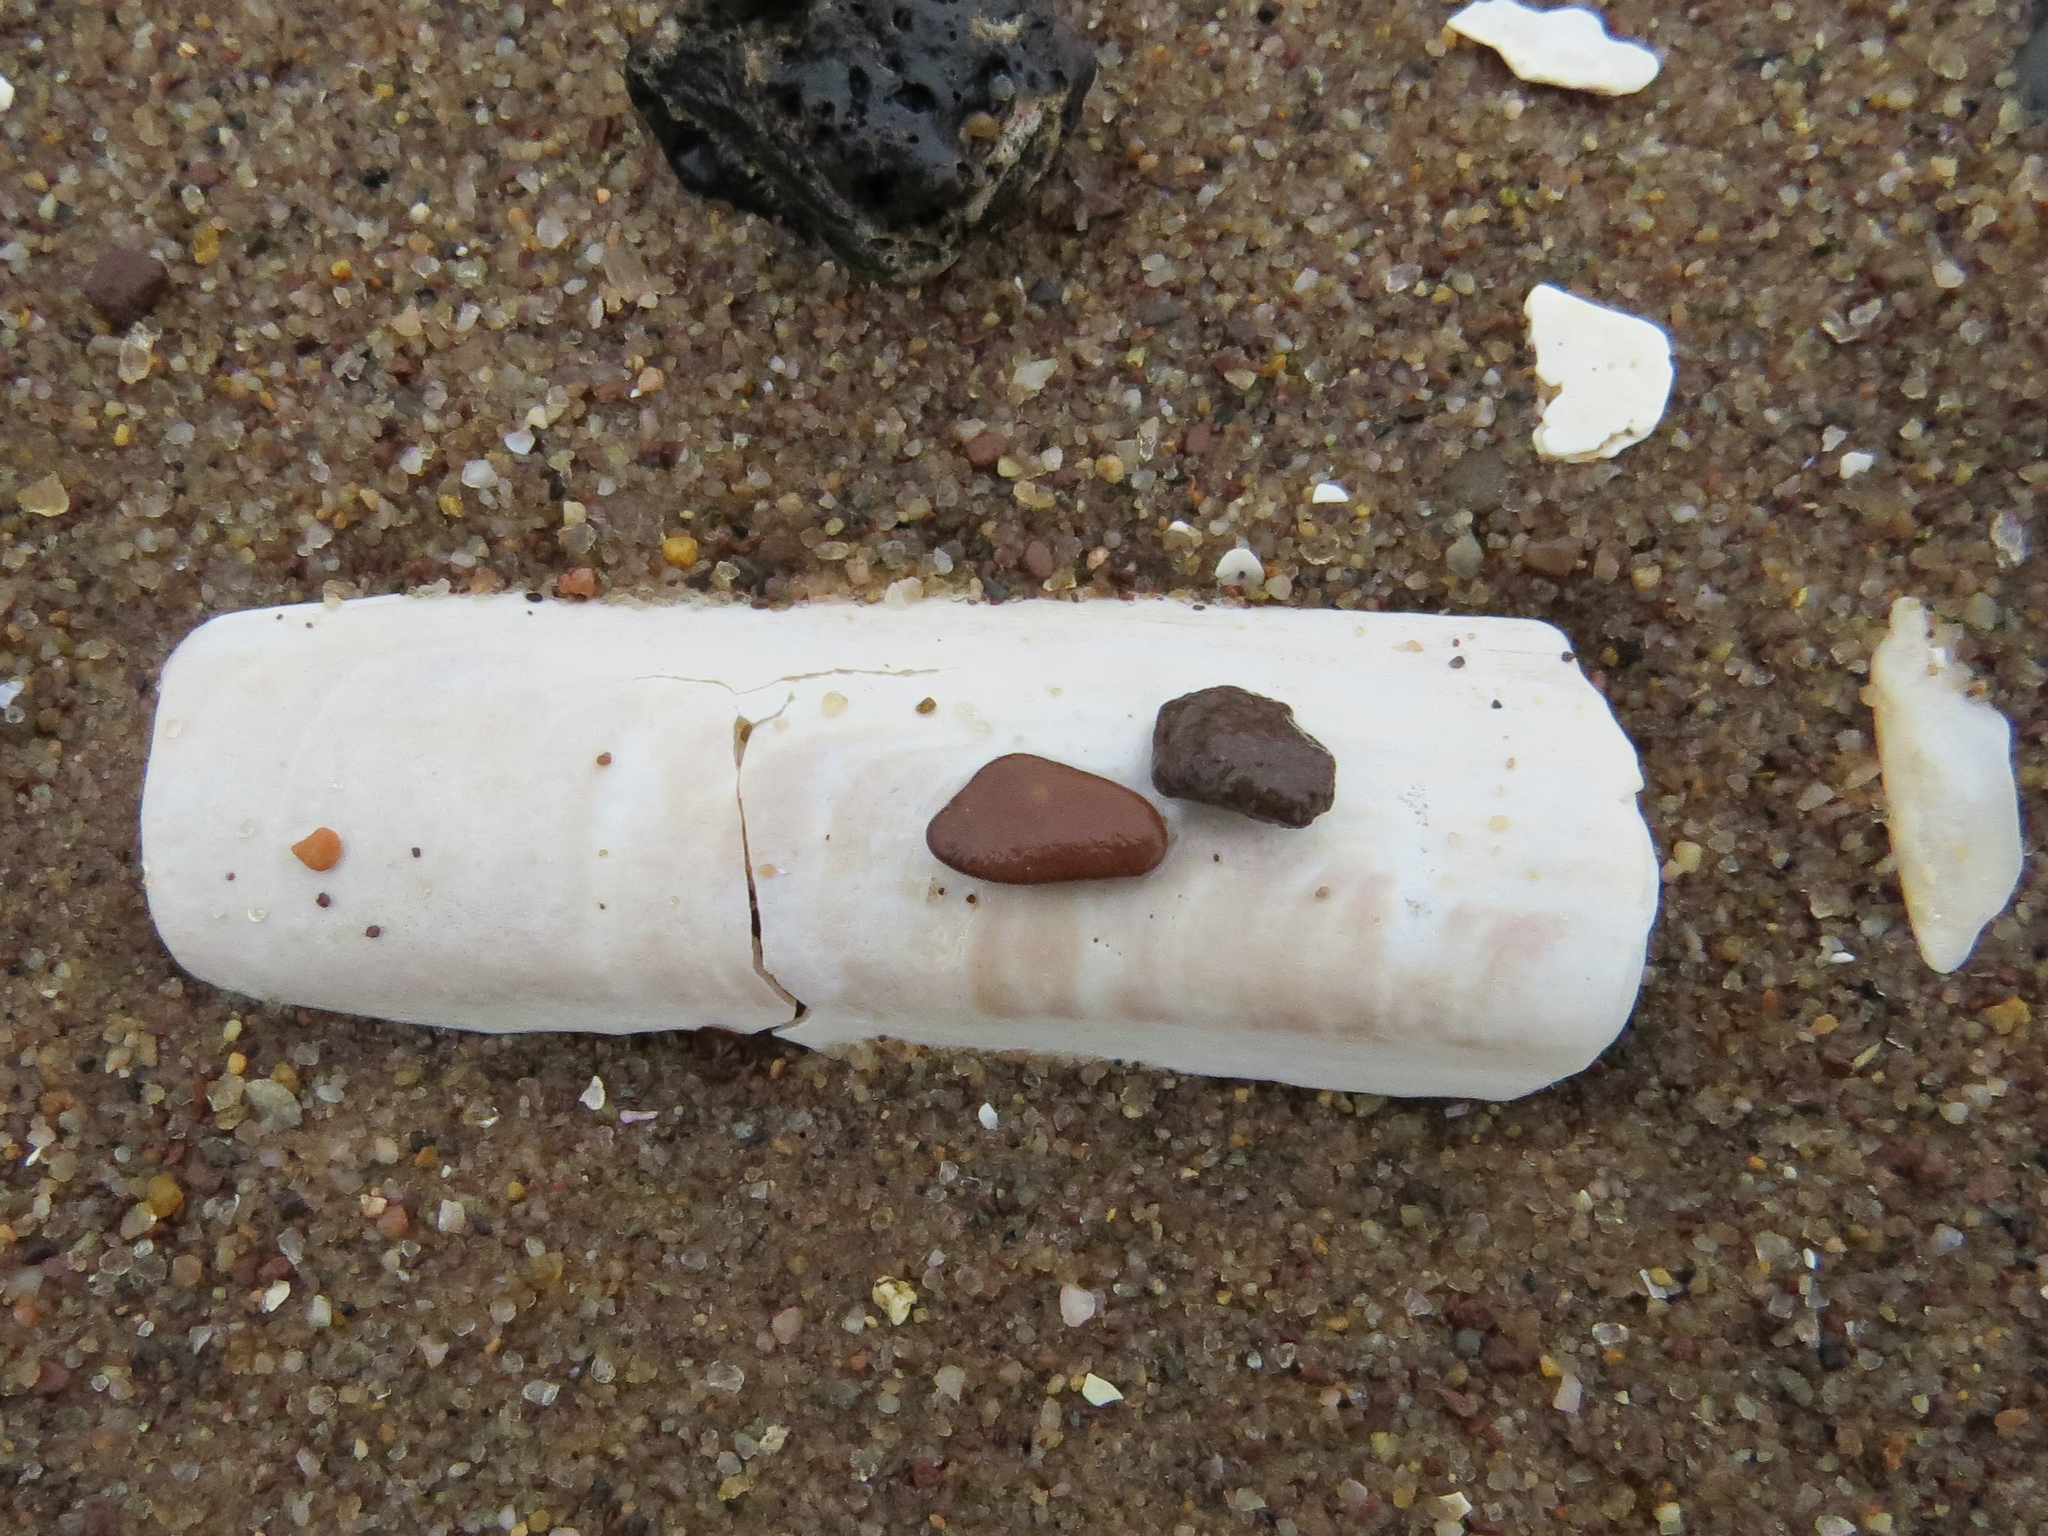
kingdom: Animalia
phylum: Mollusca
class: Bivalvia
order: Adapedonta
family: Pharidae
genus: Ensis
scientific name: Ensis leei
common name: American jack knife clam
